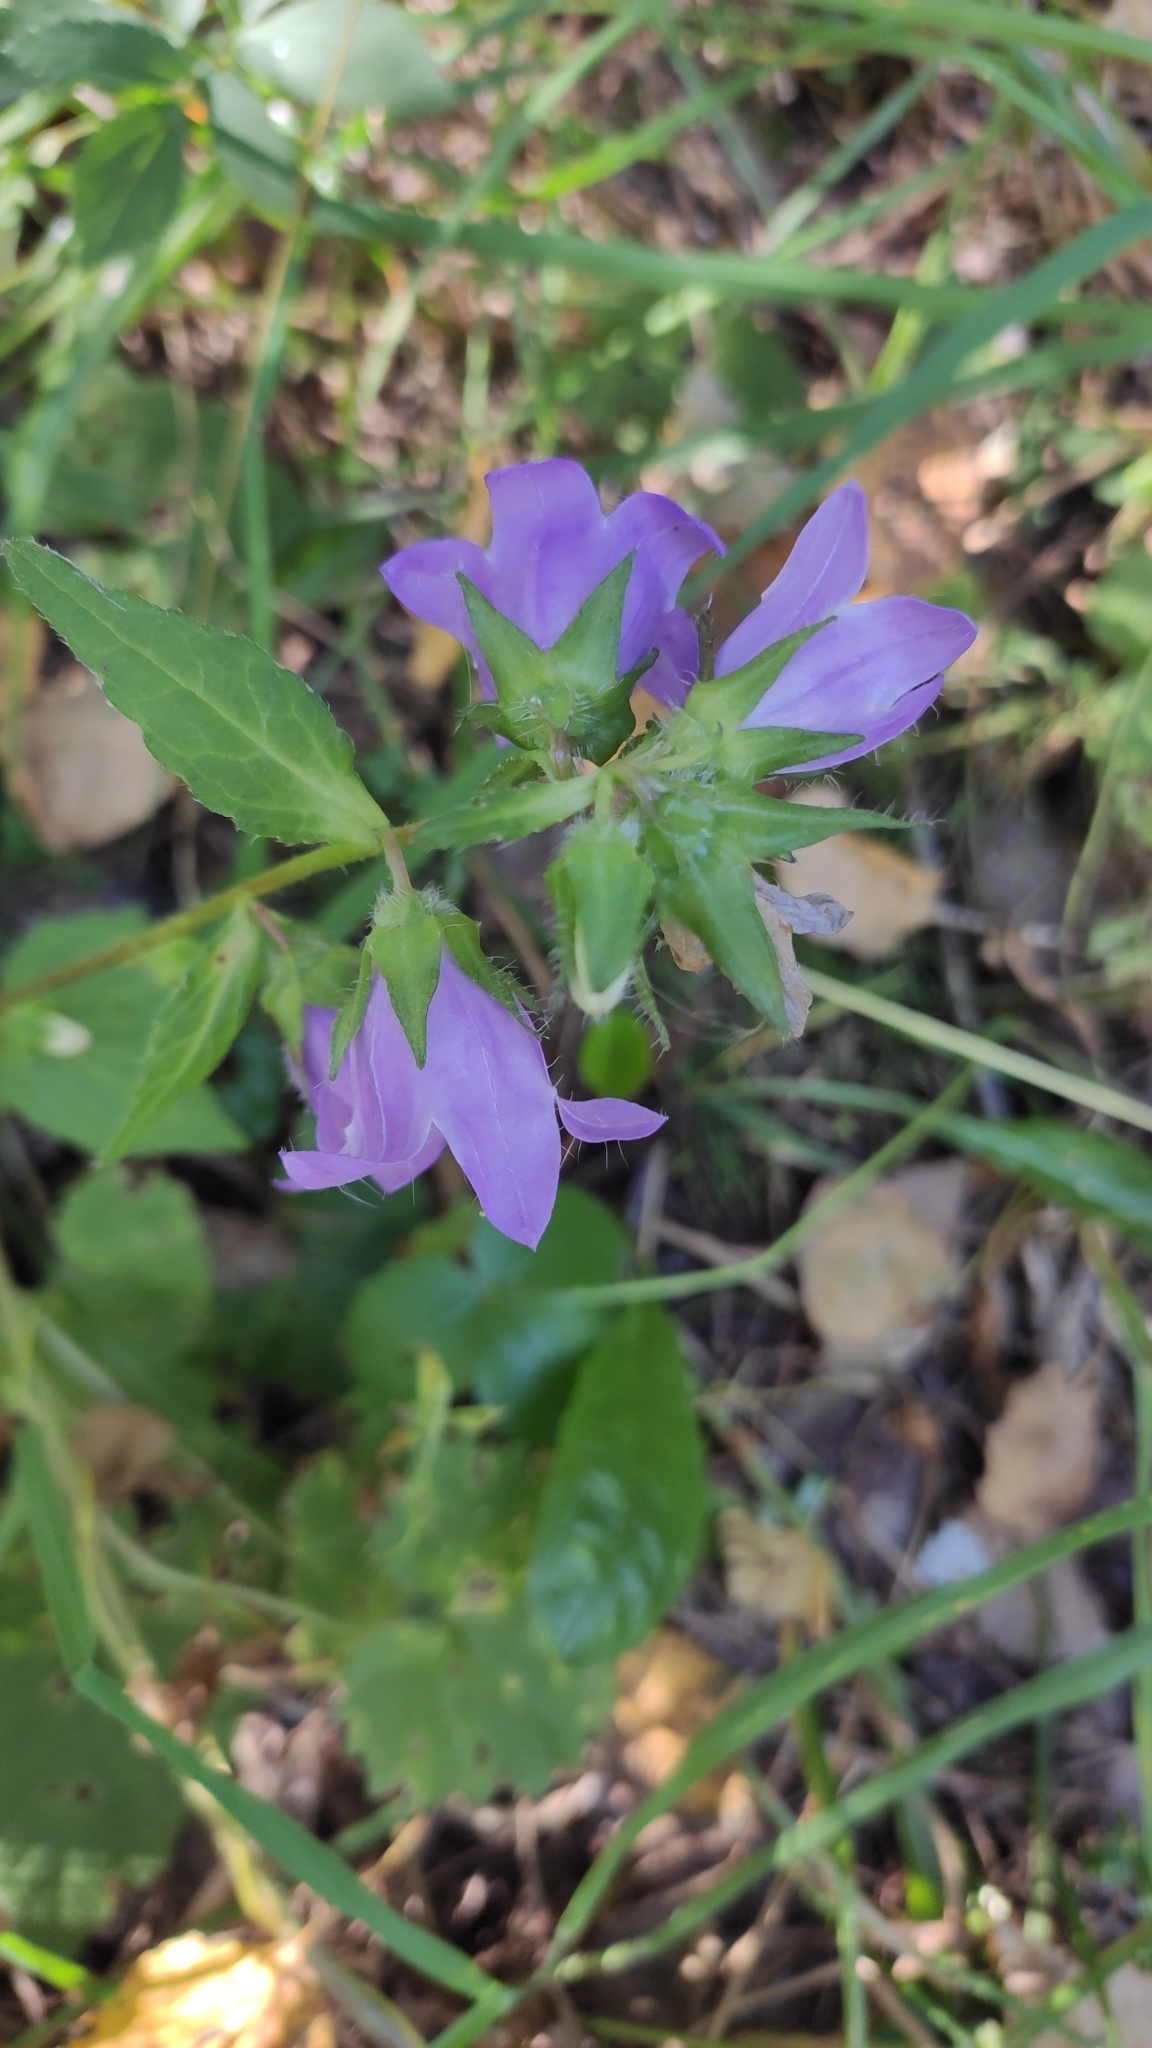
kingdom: Plantae
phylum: Tracheophyta
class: Magnoliopsida
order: Asterales
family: Campanulaceae
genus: Campanula
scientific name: Campanula trachelium
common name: Nettle-leaved bellflower
